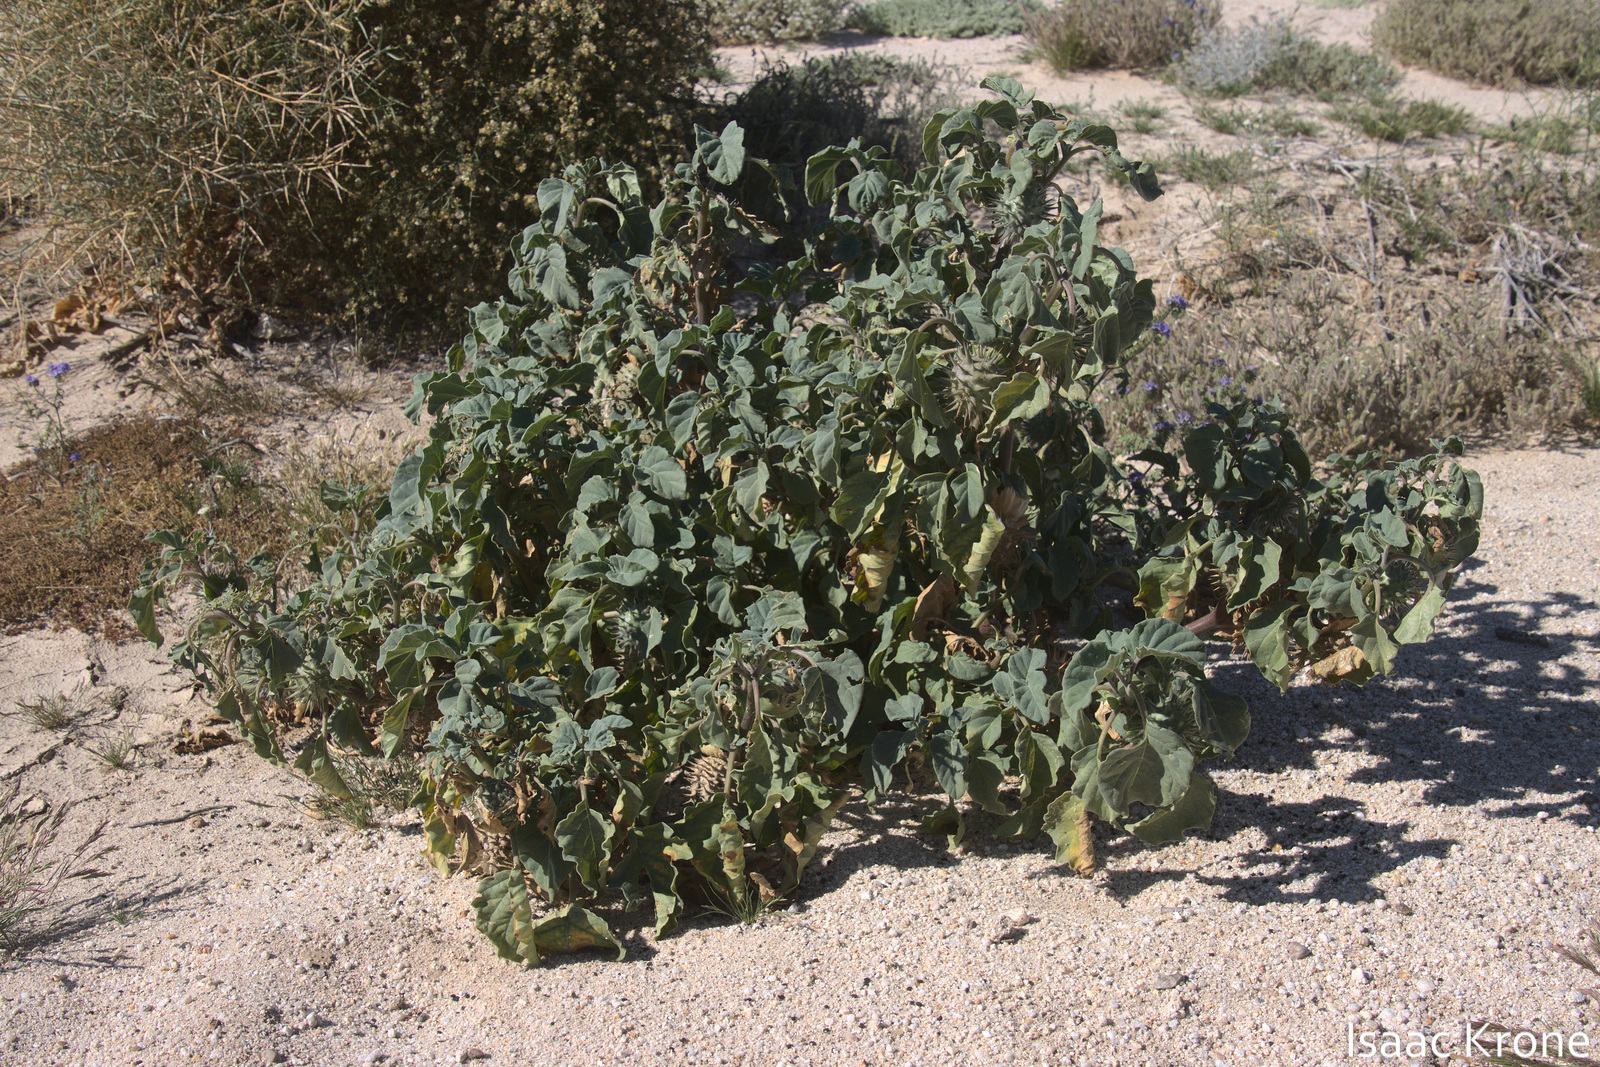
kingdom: Plantae
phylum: Tracheophyta
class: Magnoliopsida
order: Solanales
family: Solanaceae
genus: Datura
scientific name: Datura wrightii
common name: Sacred thorn-apple
